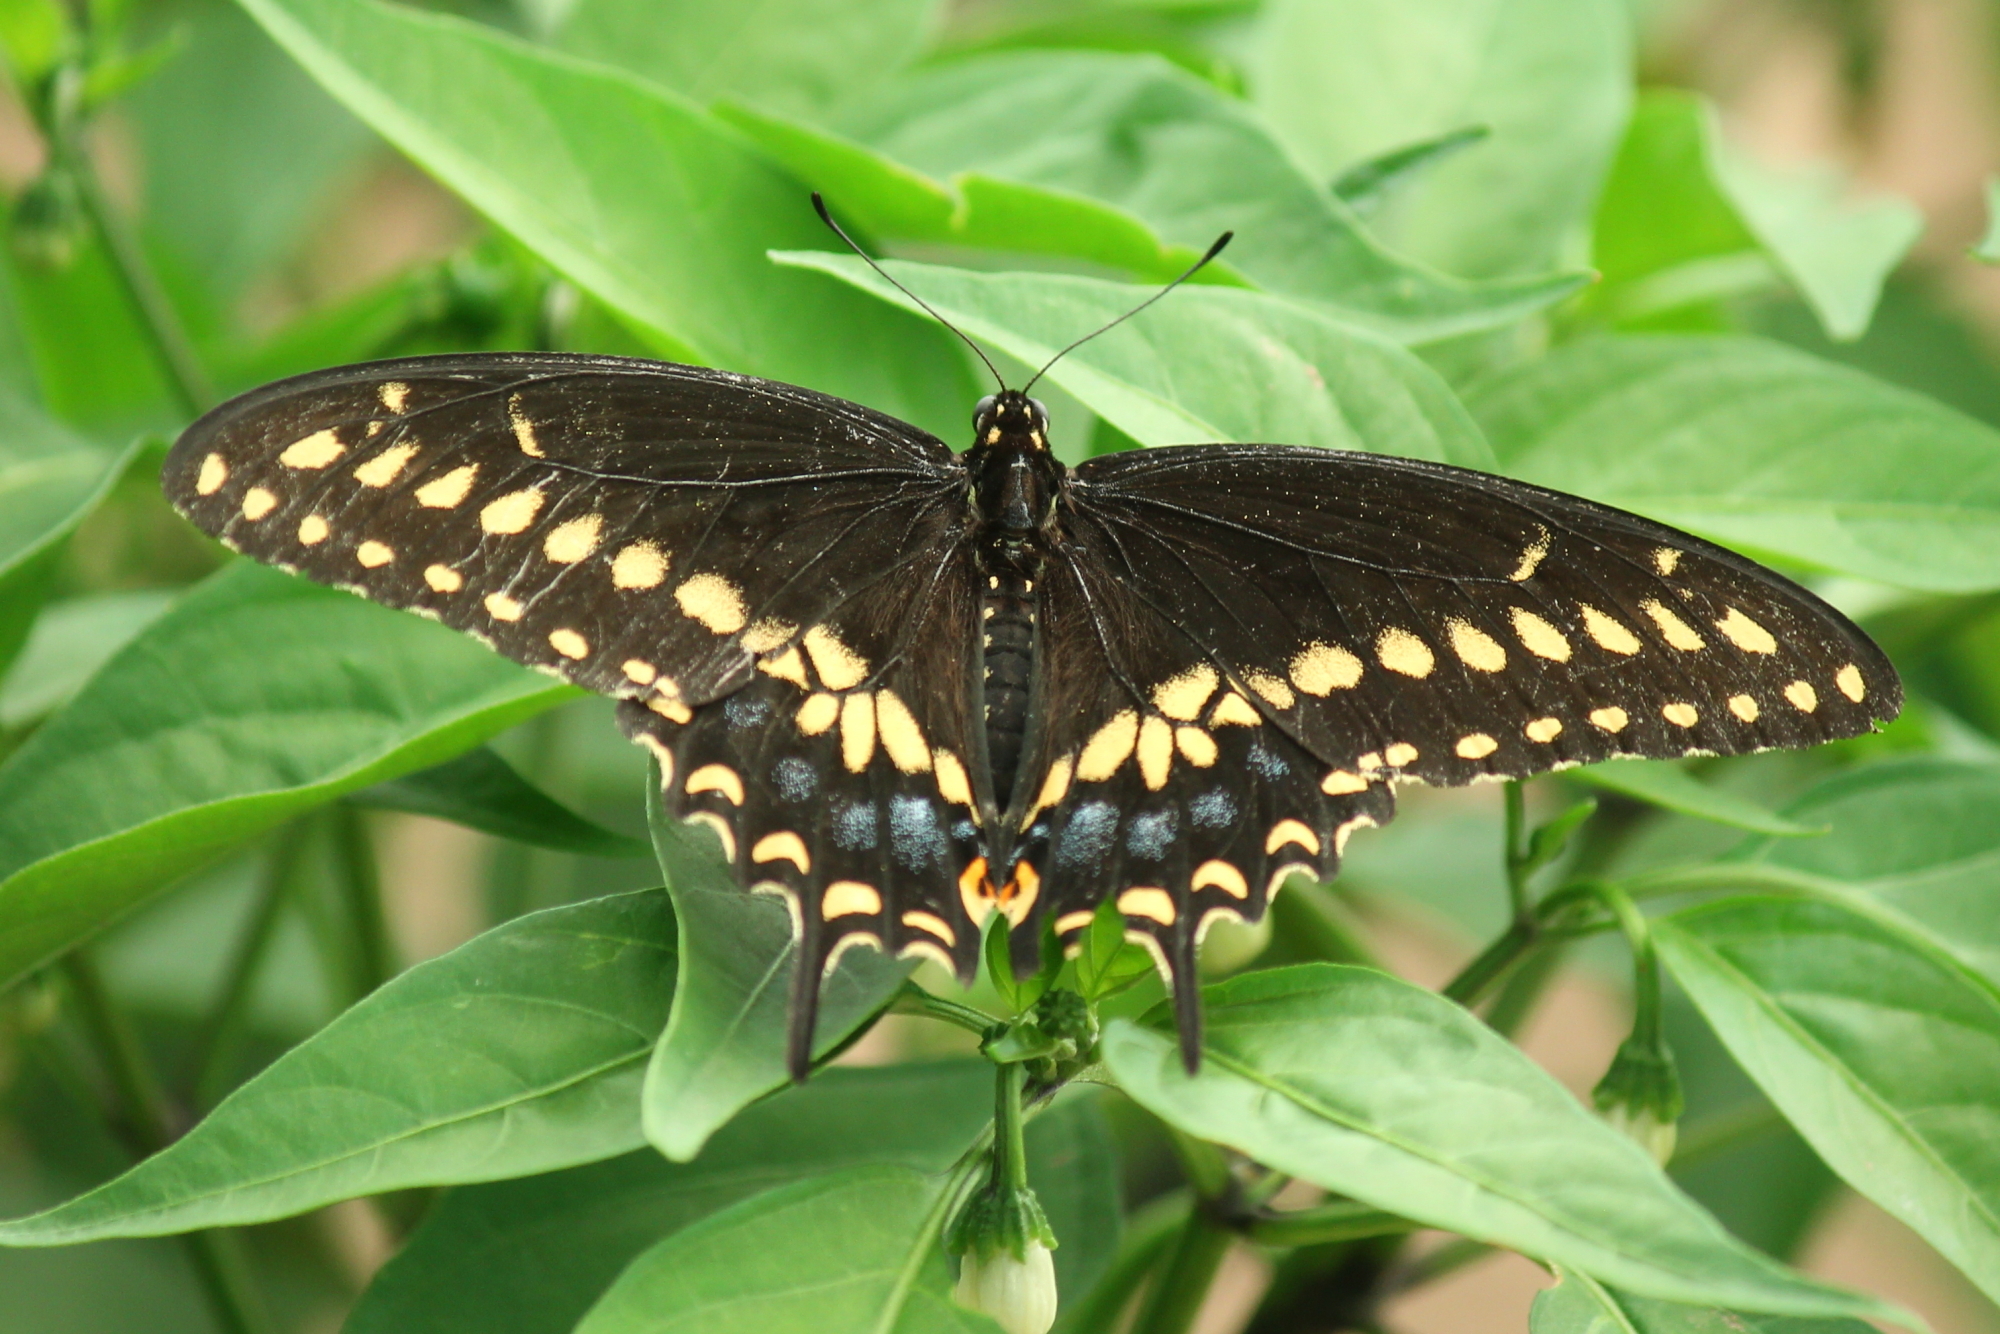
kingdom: Animalia
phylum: Arthropoda
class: Insecta
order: Lepidoptera
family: Papilionidae
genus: Papilio
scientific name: Papilio polyxenes
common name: Black swallowtail
